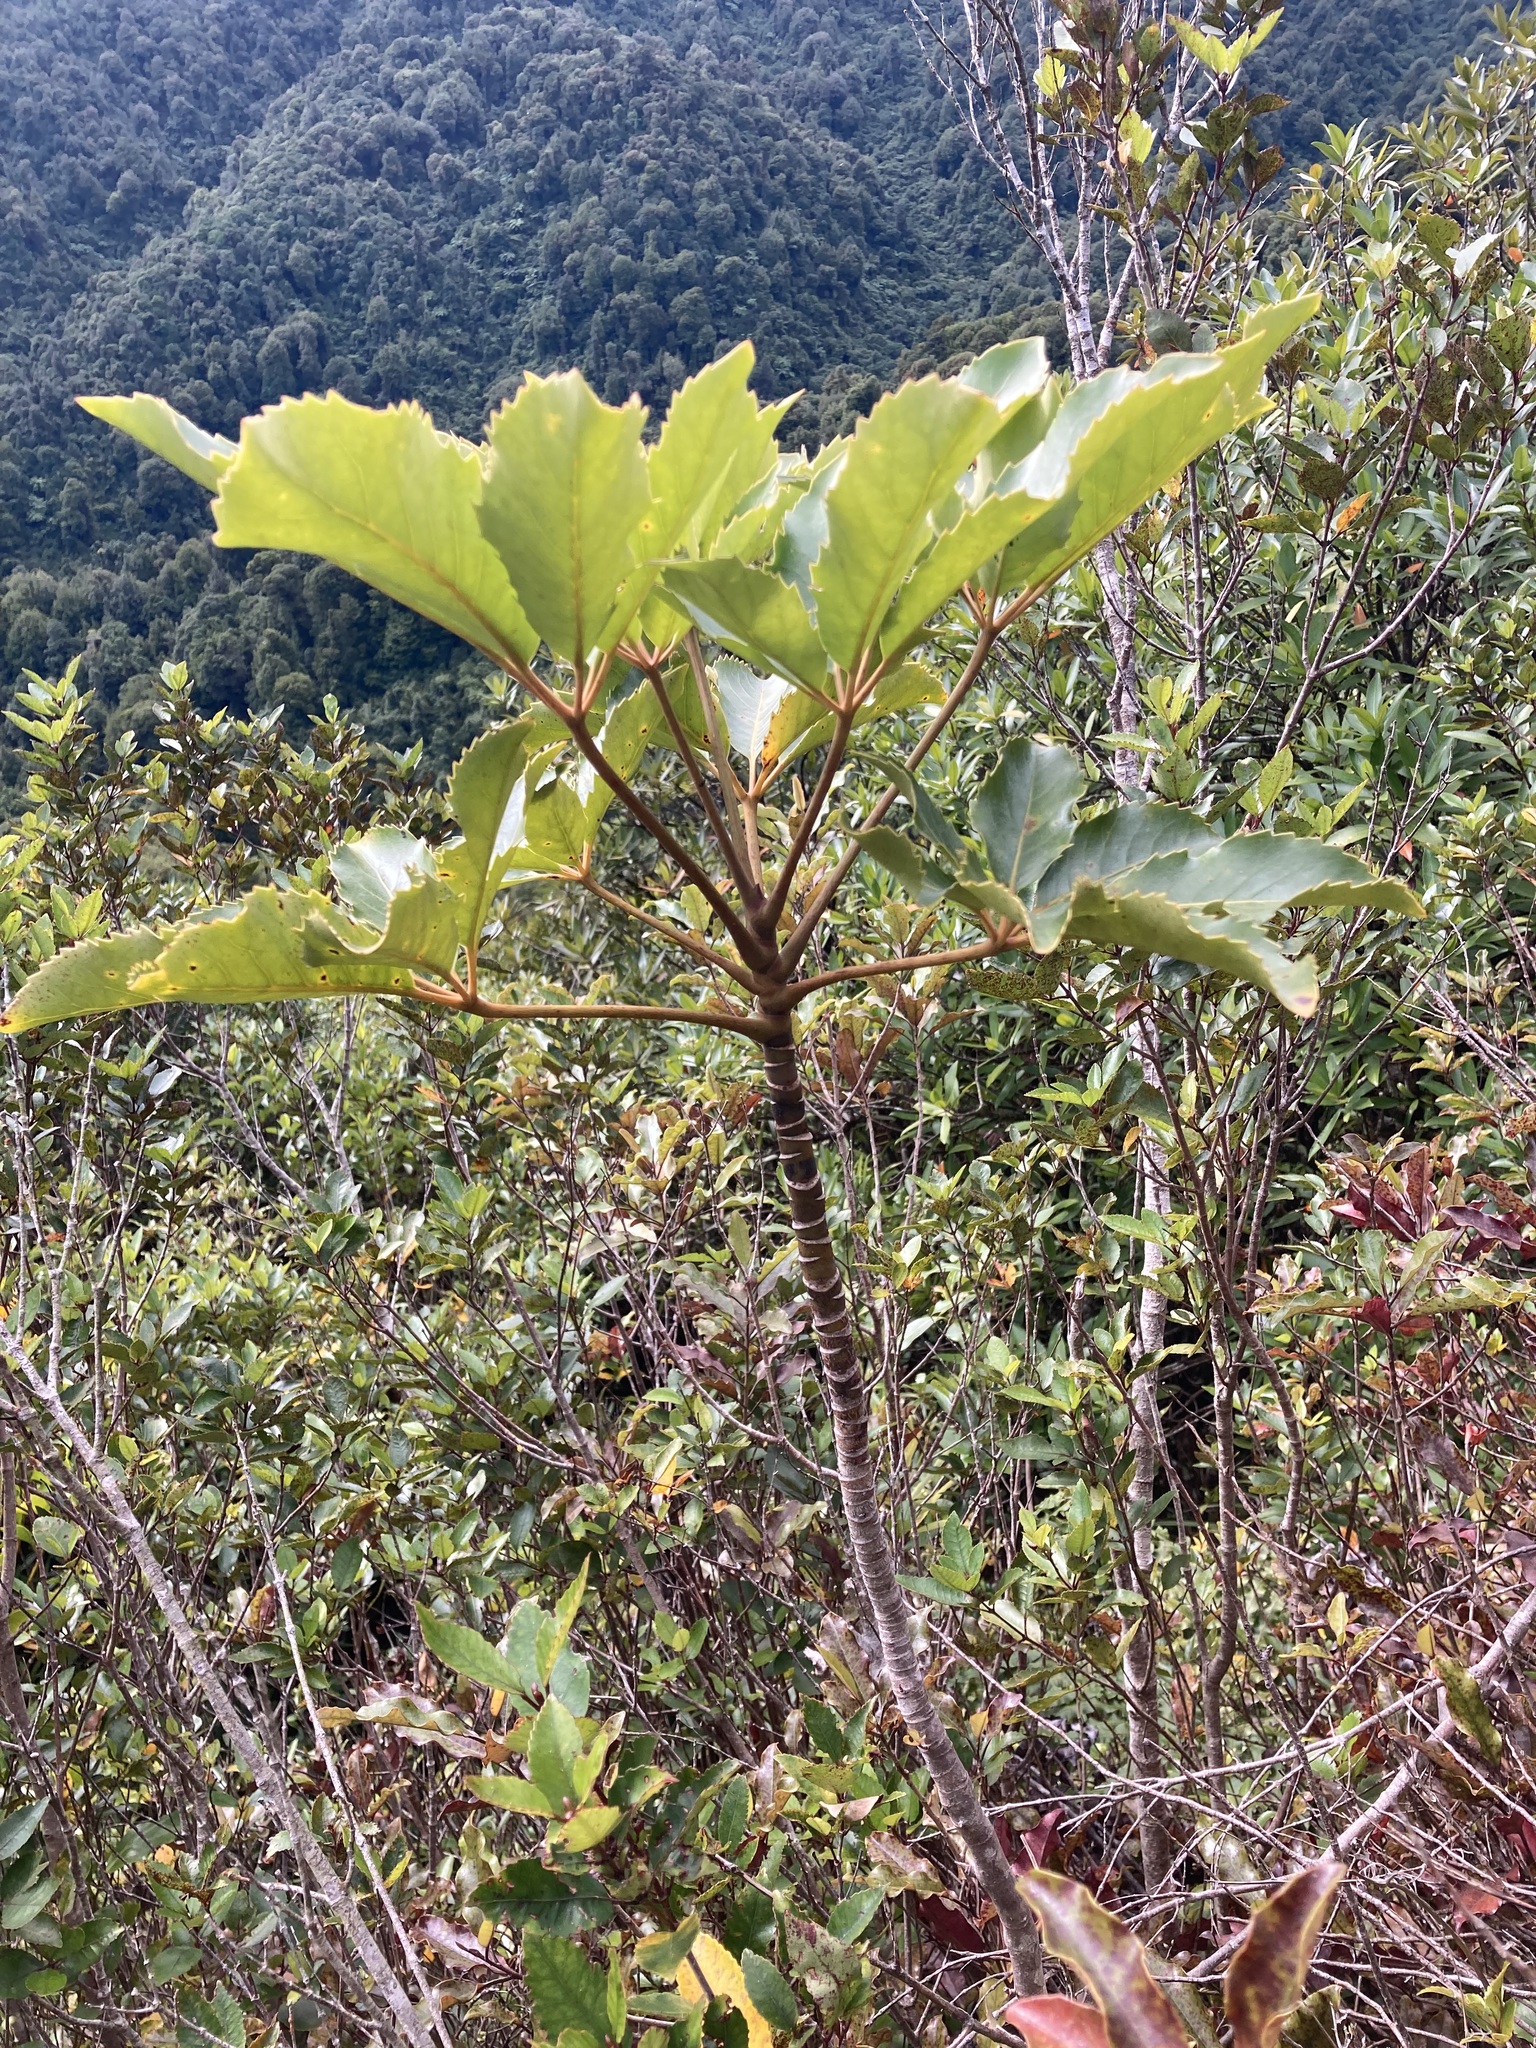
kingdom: Plantae
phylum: Tracheophyta
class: Magnoliopsida
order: Apiales
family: Araliaceae
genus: Neopanax
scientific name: Neopanax arboreus
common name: Five-fingers
